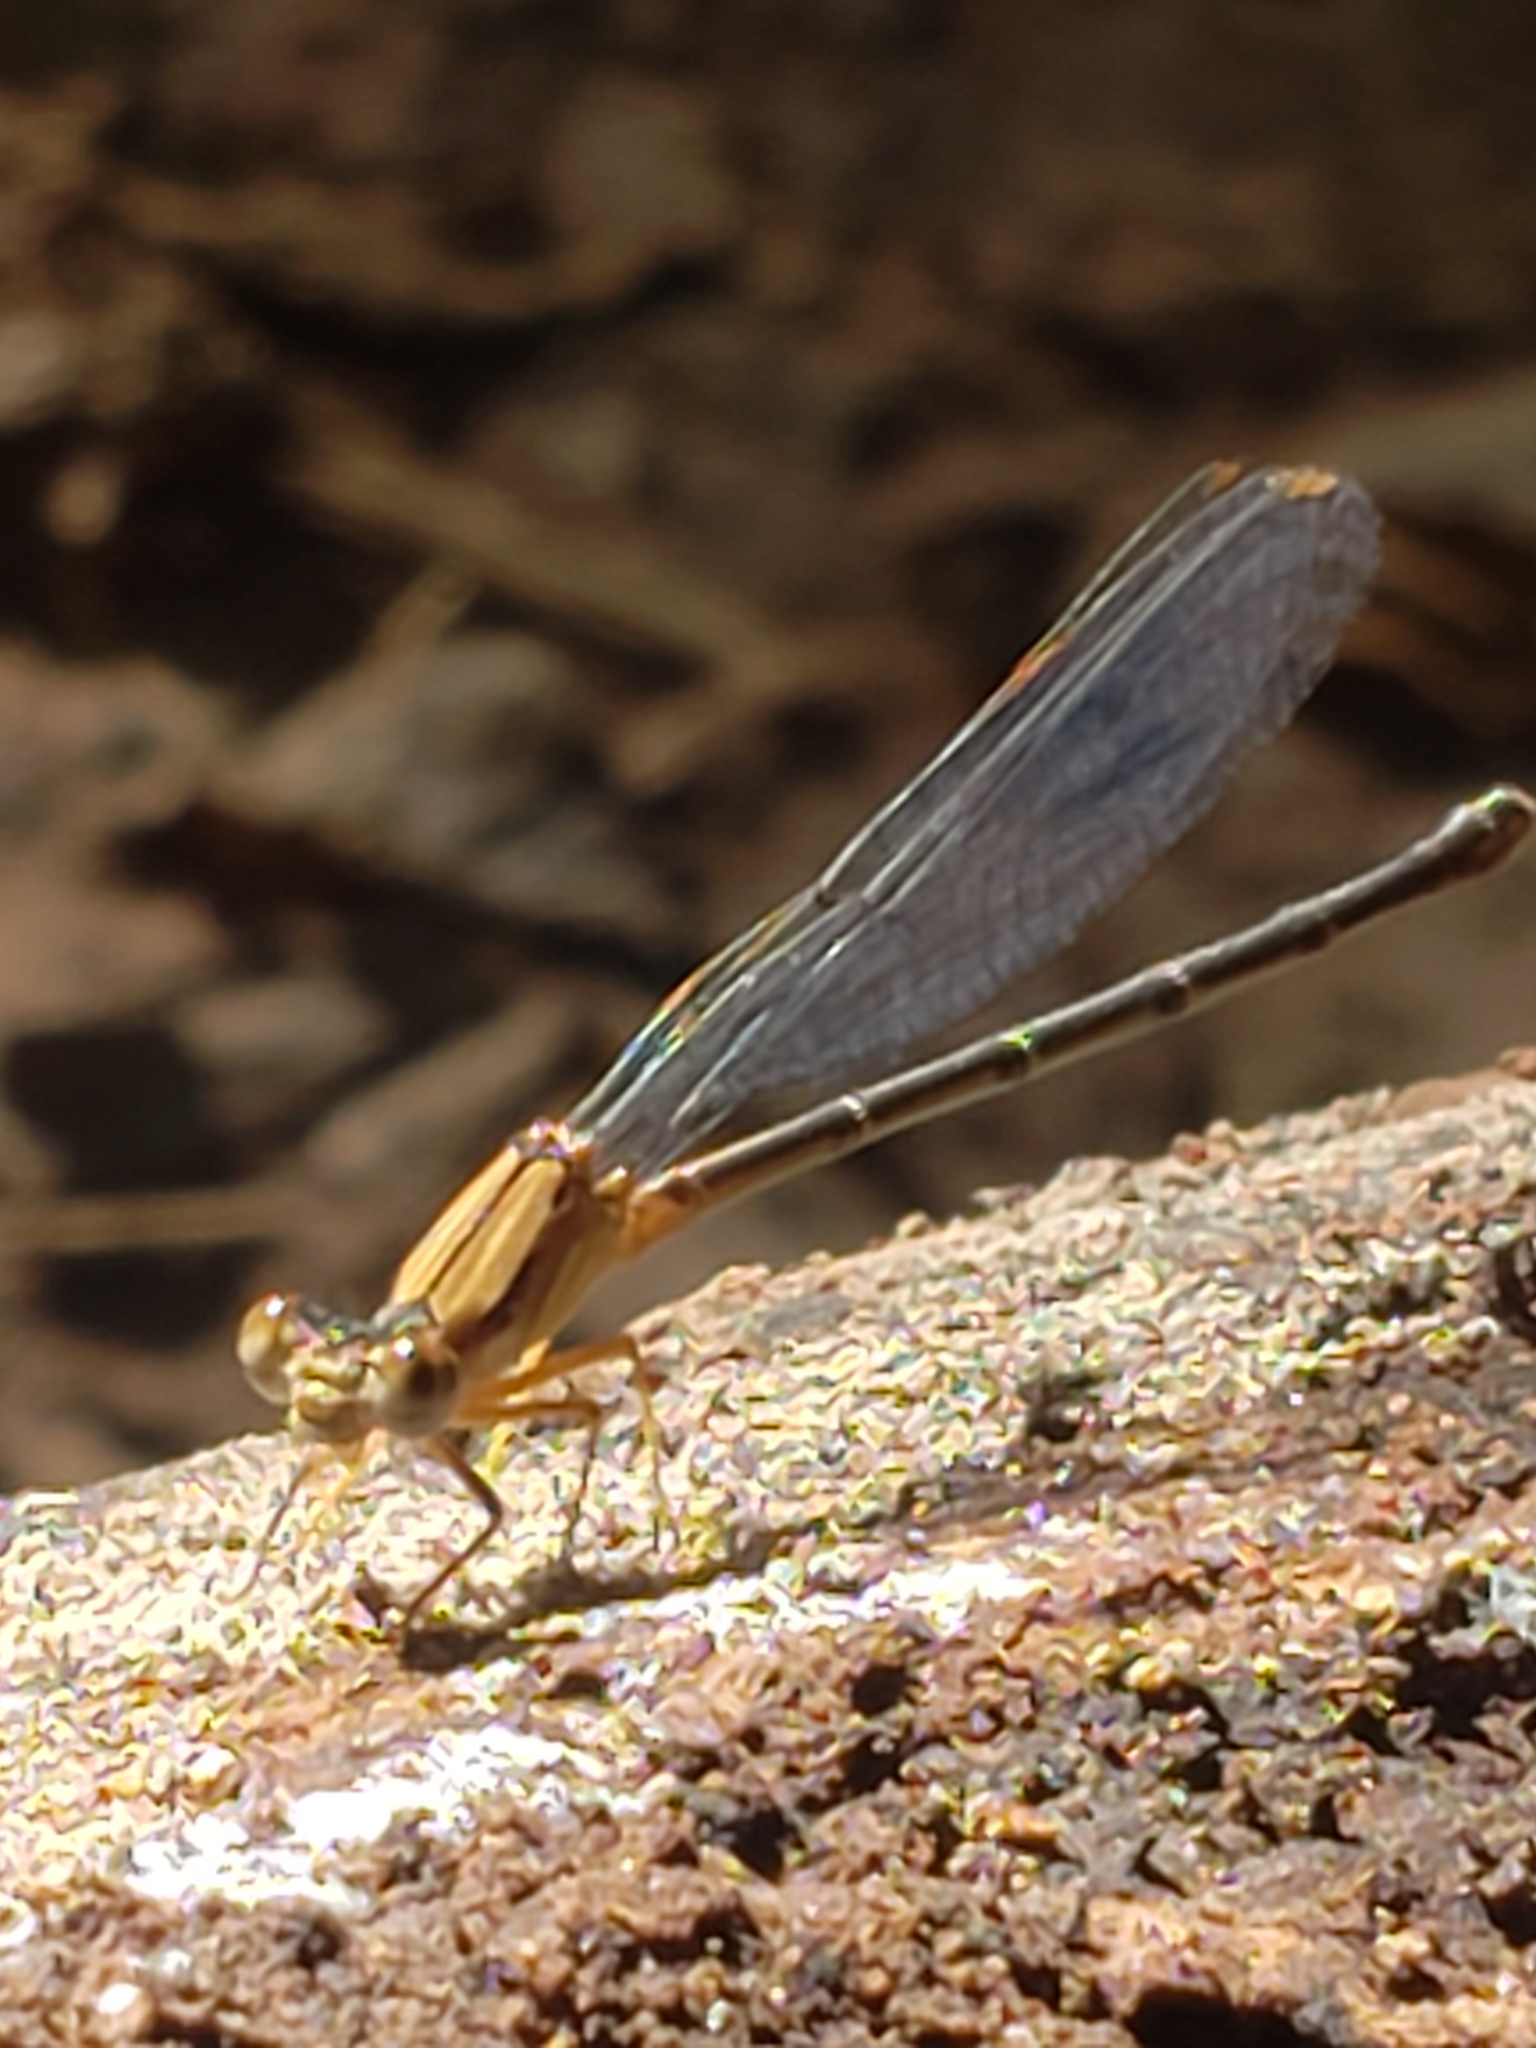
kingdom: Animalia
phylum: Arthropoda
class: Insecta
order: Odonata
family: Coenagrionidae
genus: Argia
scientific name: Argia apicalis
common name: Blue-fronted dancer
